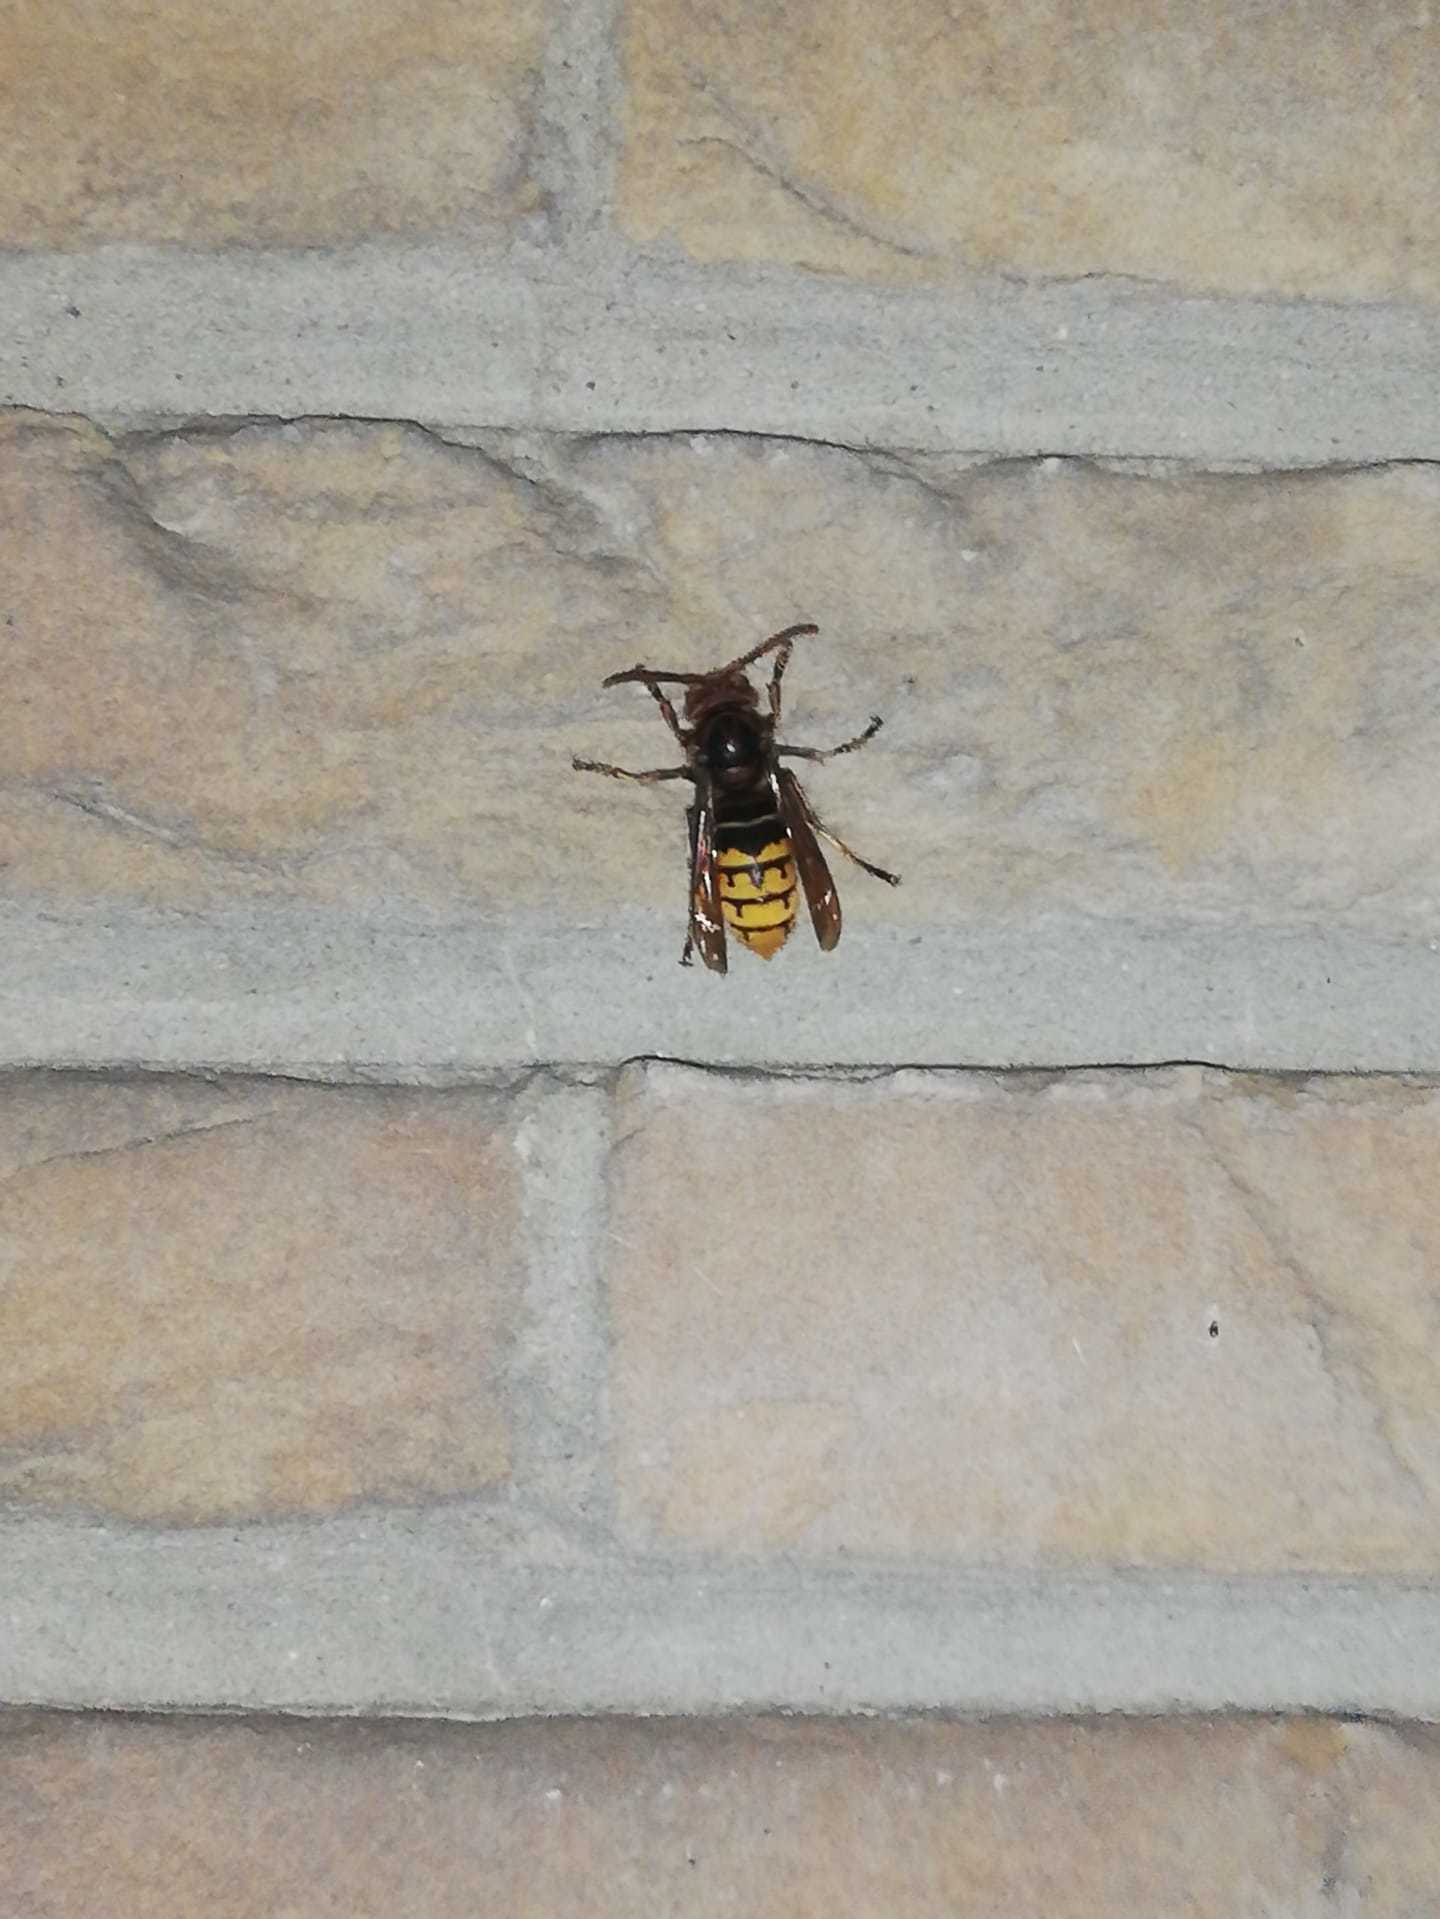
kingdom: Animalia
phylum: Arthropoda
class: Insecta
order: Hymenoptera
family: Vespidae
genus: Vespa
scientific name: Vespa crabro
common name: Hornet
